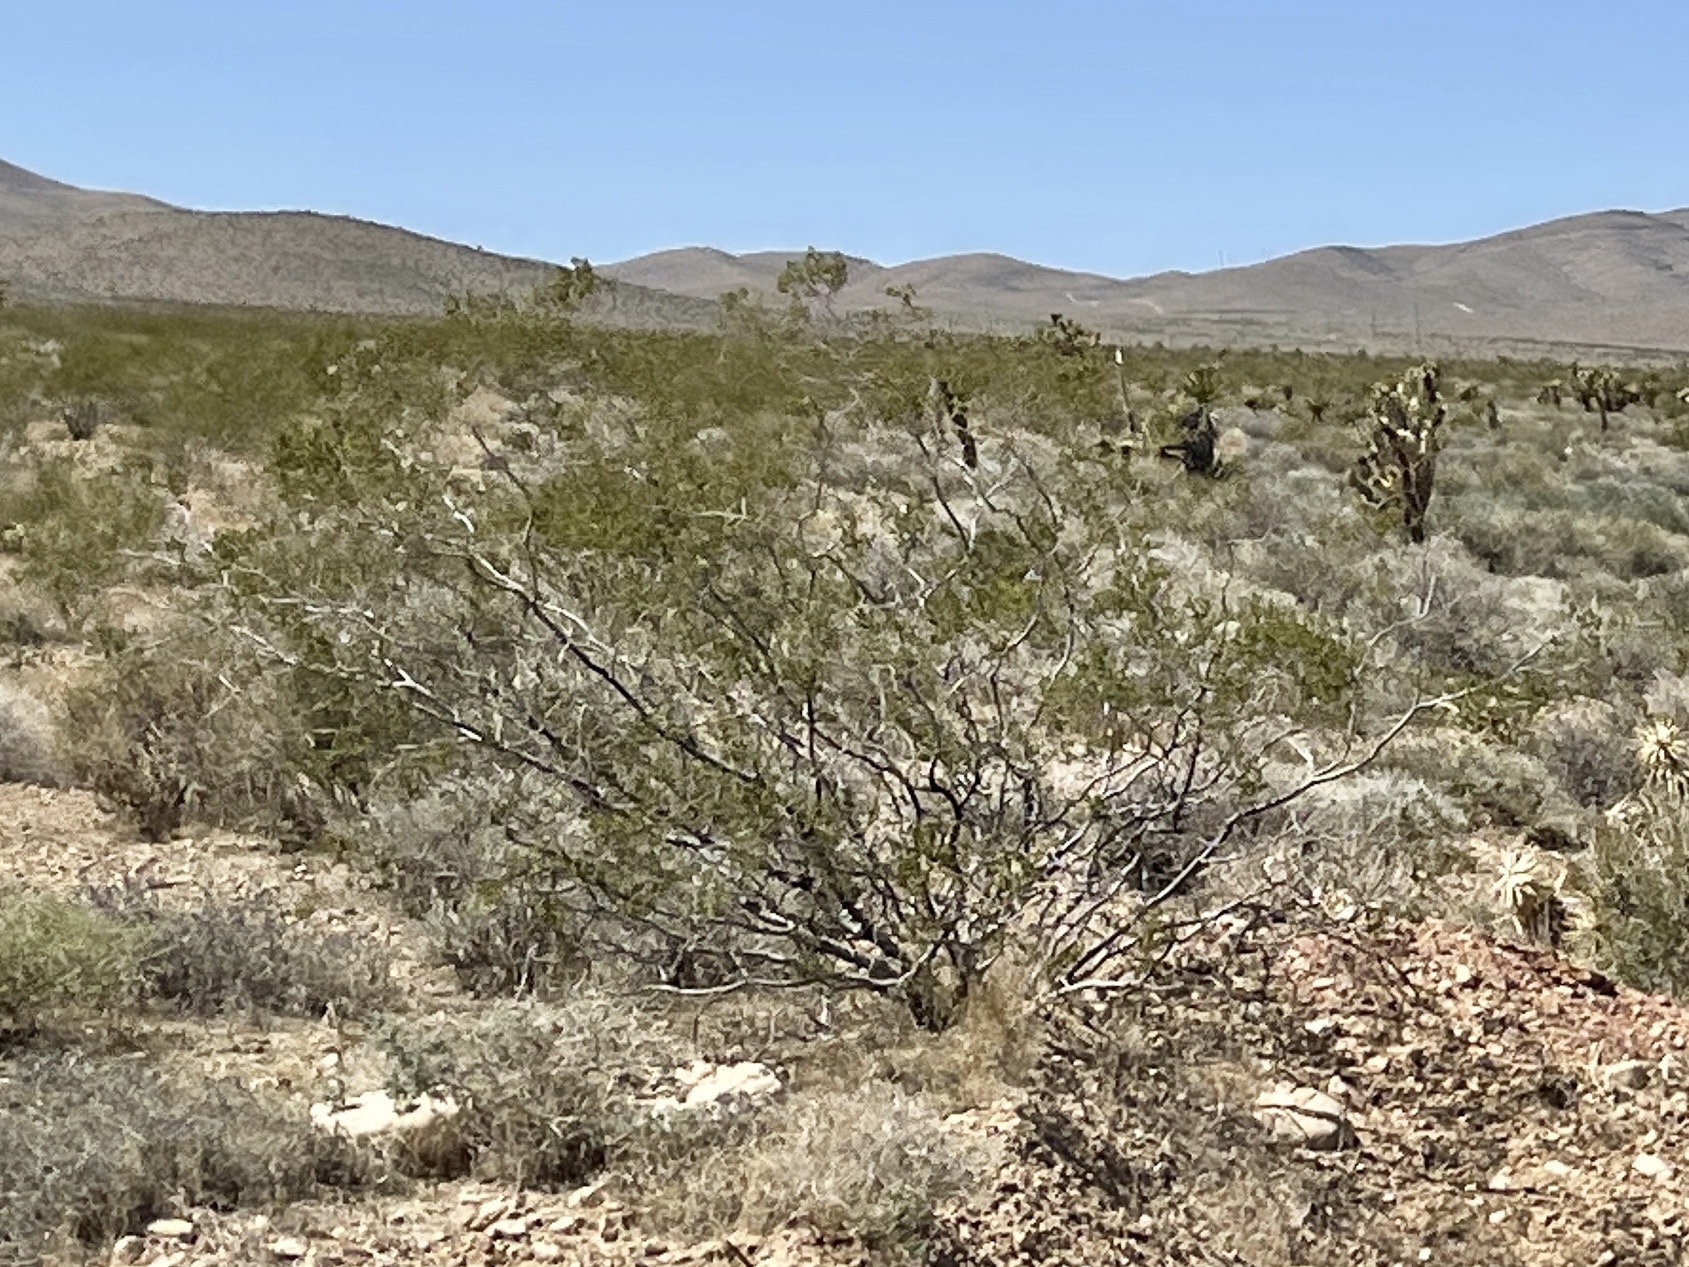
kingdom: Plantae
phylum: Tracheophyta
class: Magnoliopsida
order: Zygophyllales
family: Zygophyllaceae
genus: Larrea
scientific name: Larrea tridentata
